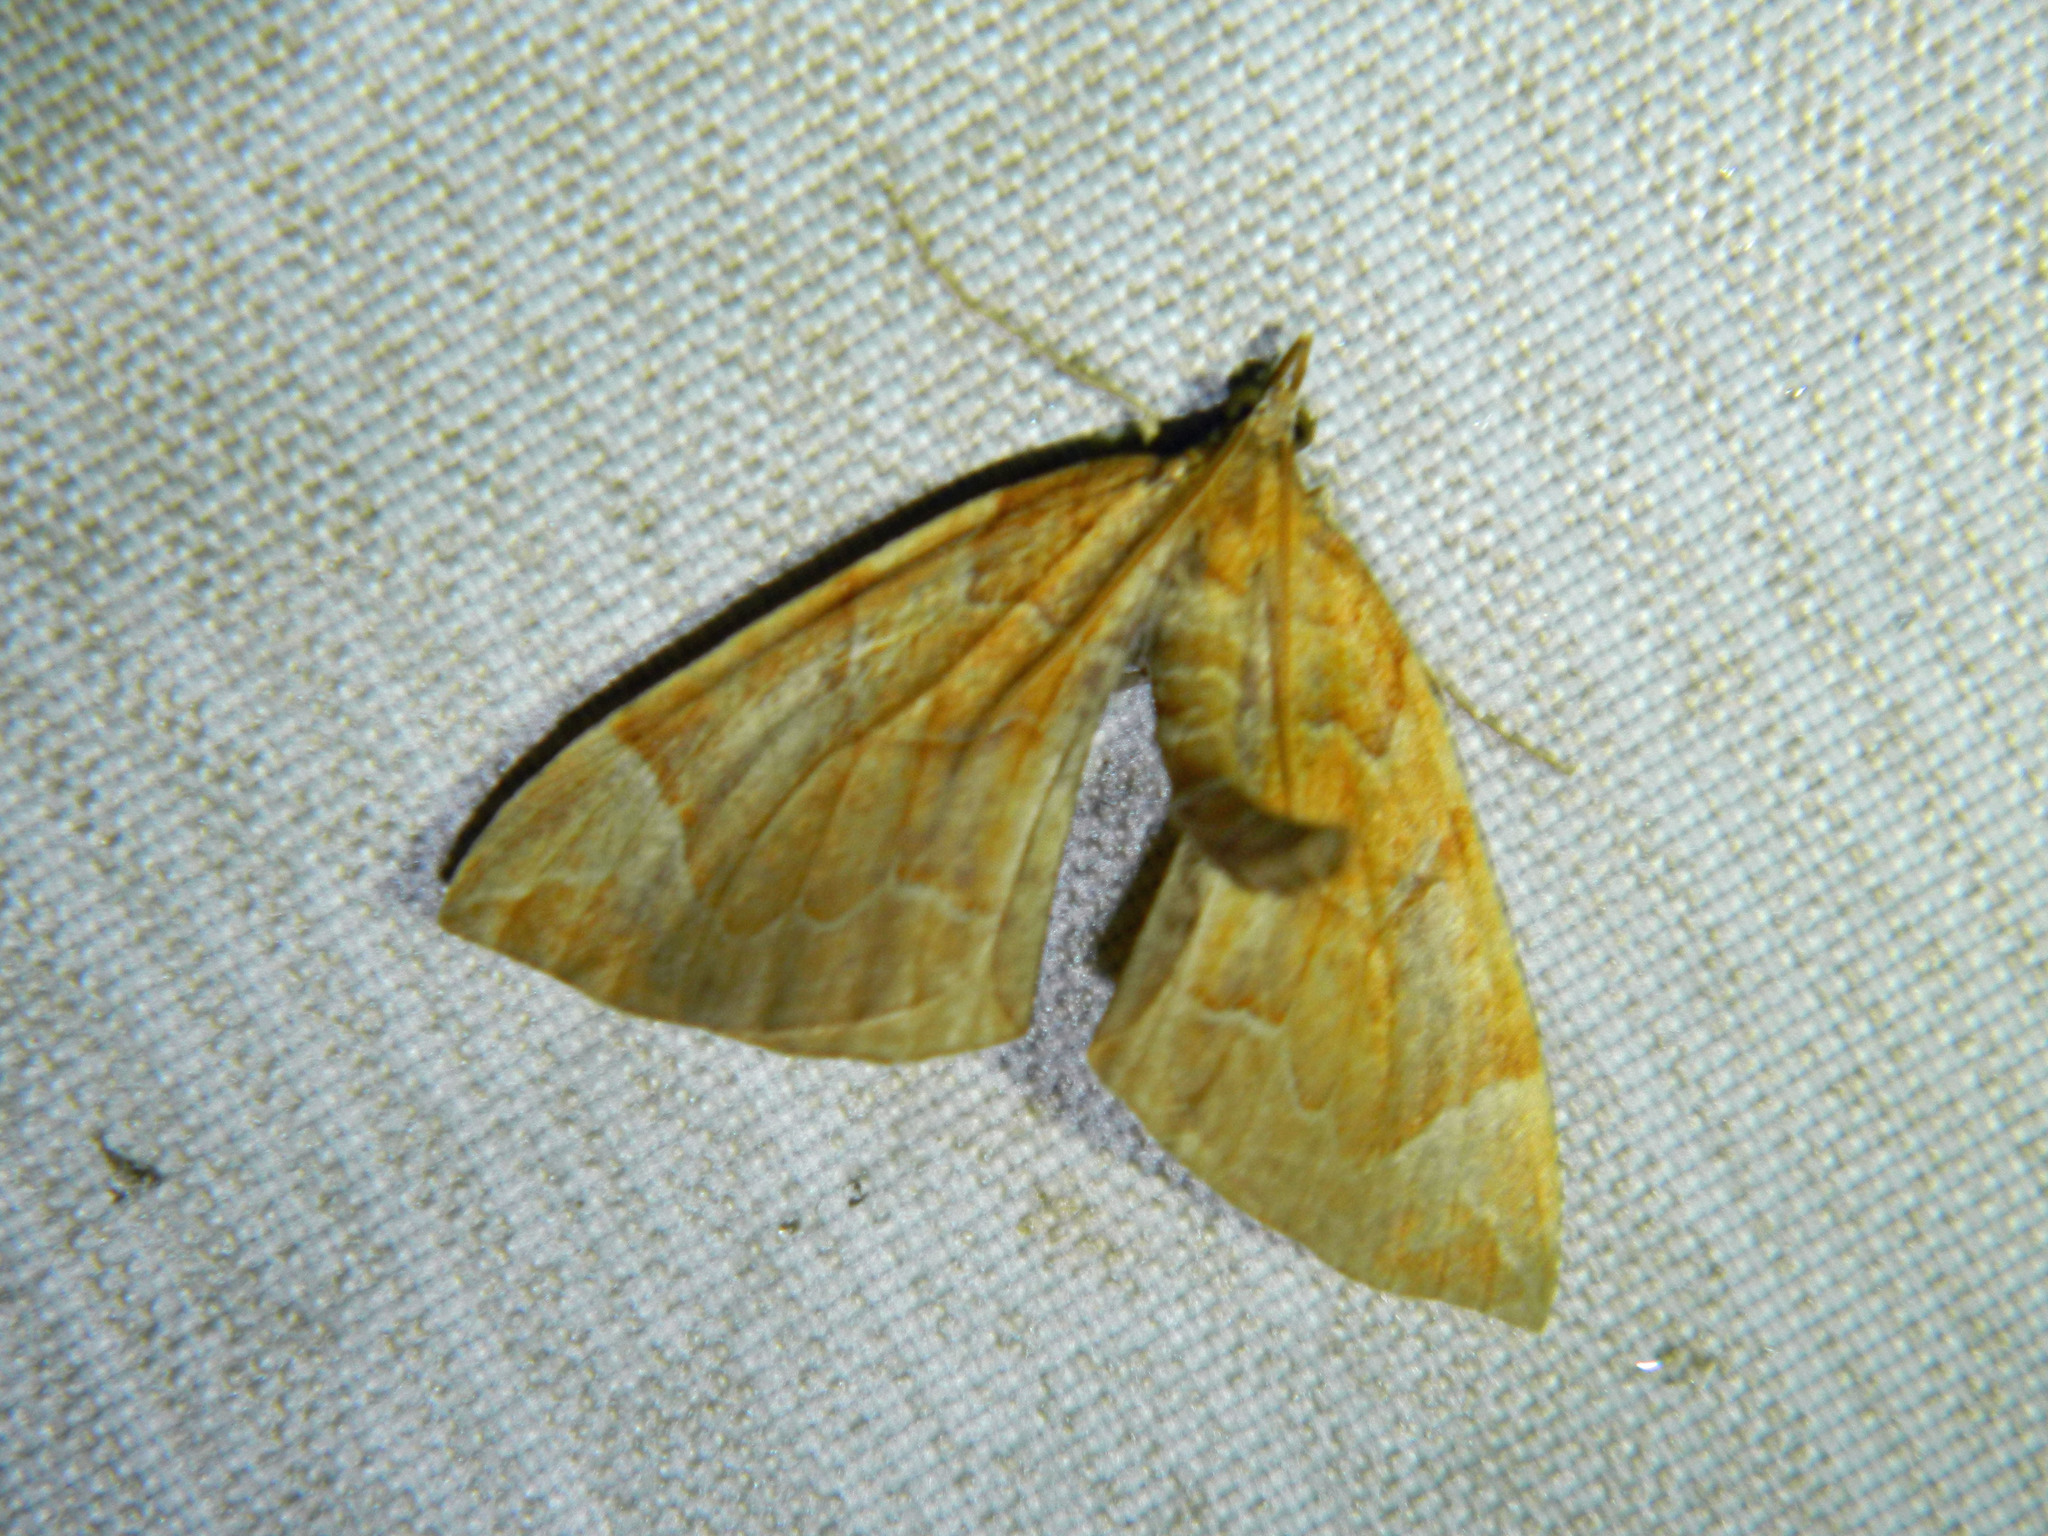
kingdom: Animalia
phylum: Arthropoda
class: Insecta
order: Lepidoptera
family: Geometridae
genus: Eulithis
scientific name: Eulithis testata
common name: Chevron
